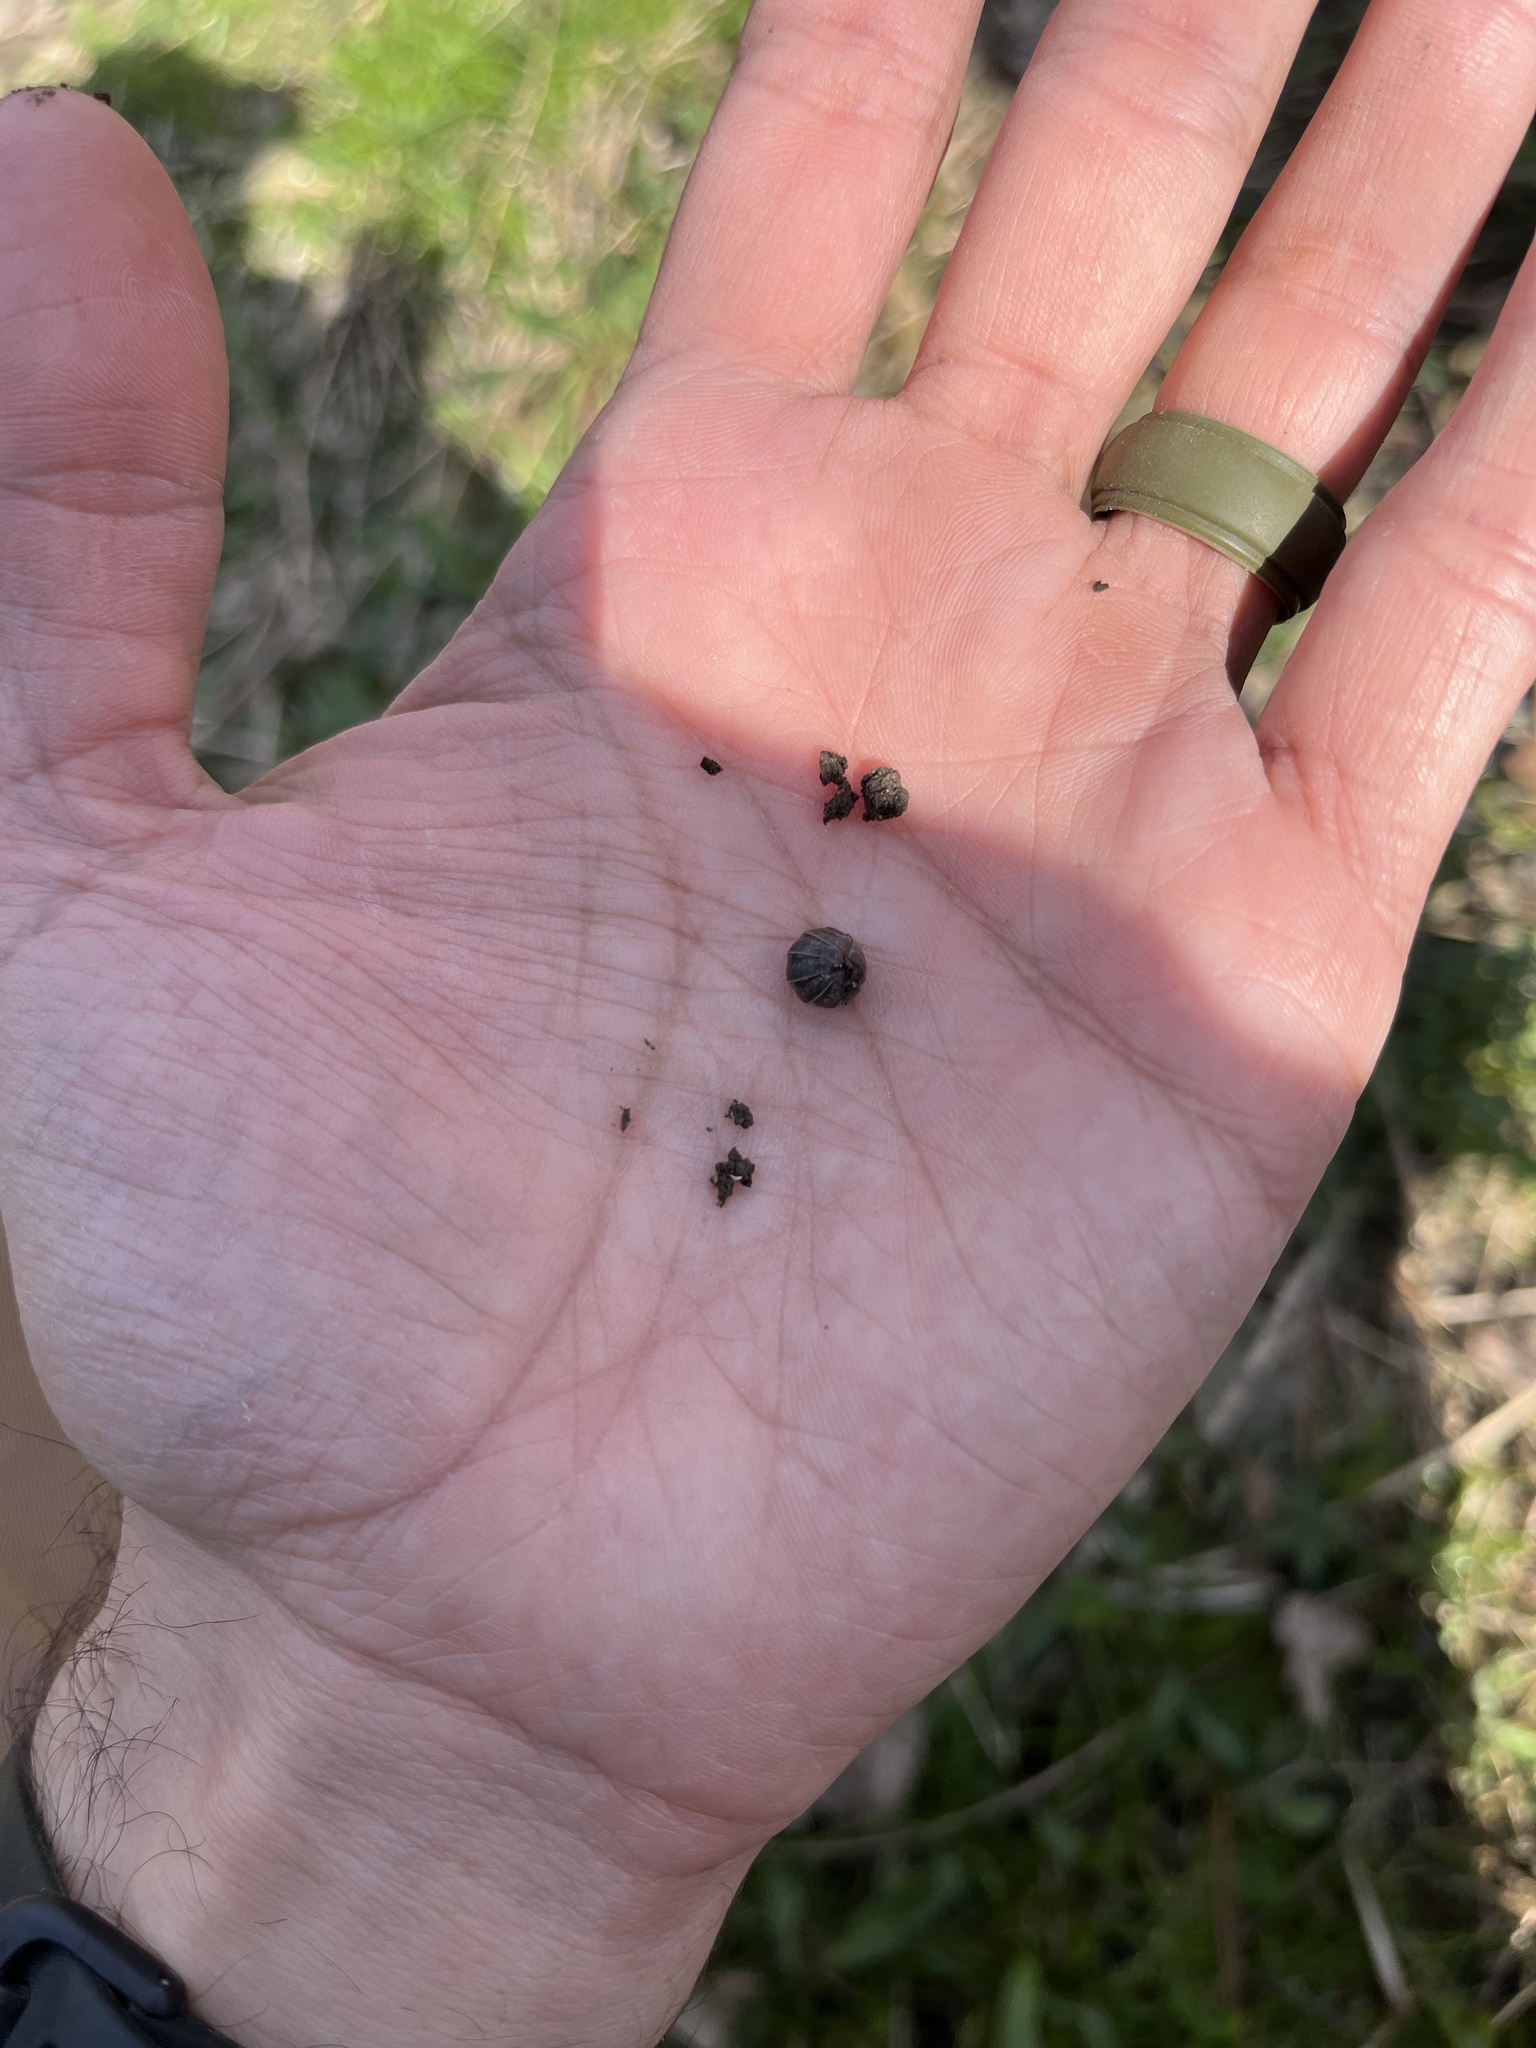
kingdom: Animalia
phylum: Arthropoda
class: Malacostraca
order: Isopoda
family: Armadillidiidae
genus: Armadillidium
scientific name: Armadillidium vulgare
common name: Common pill woodlouse
